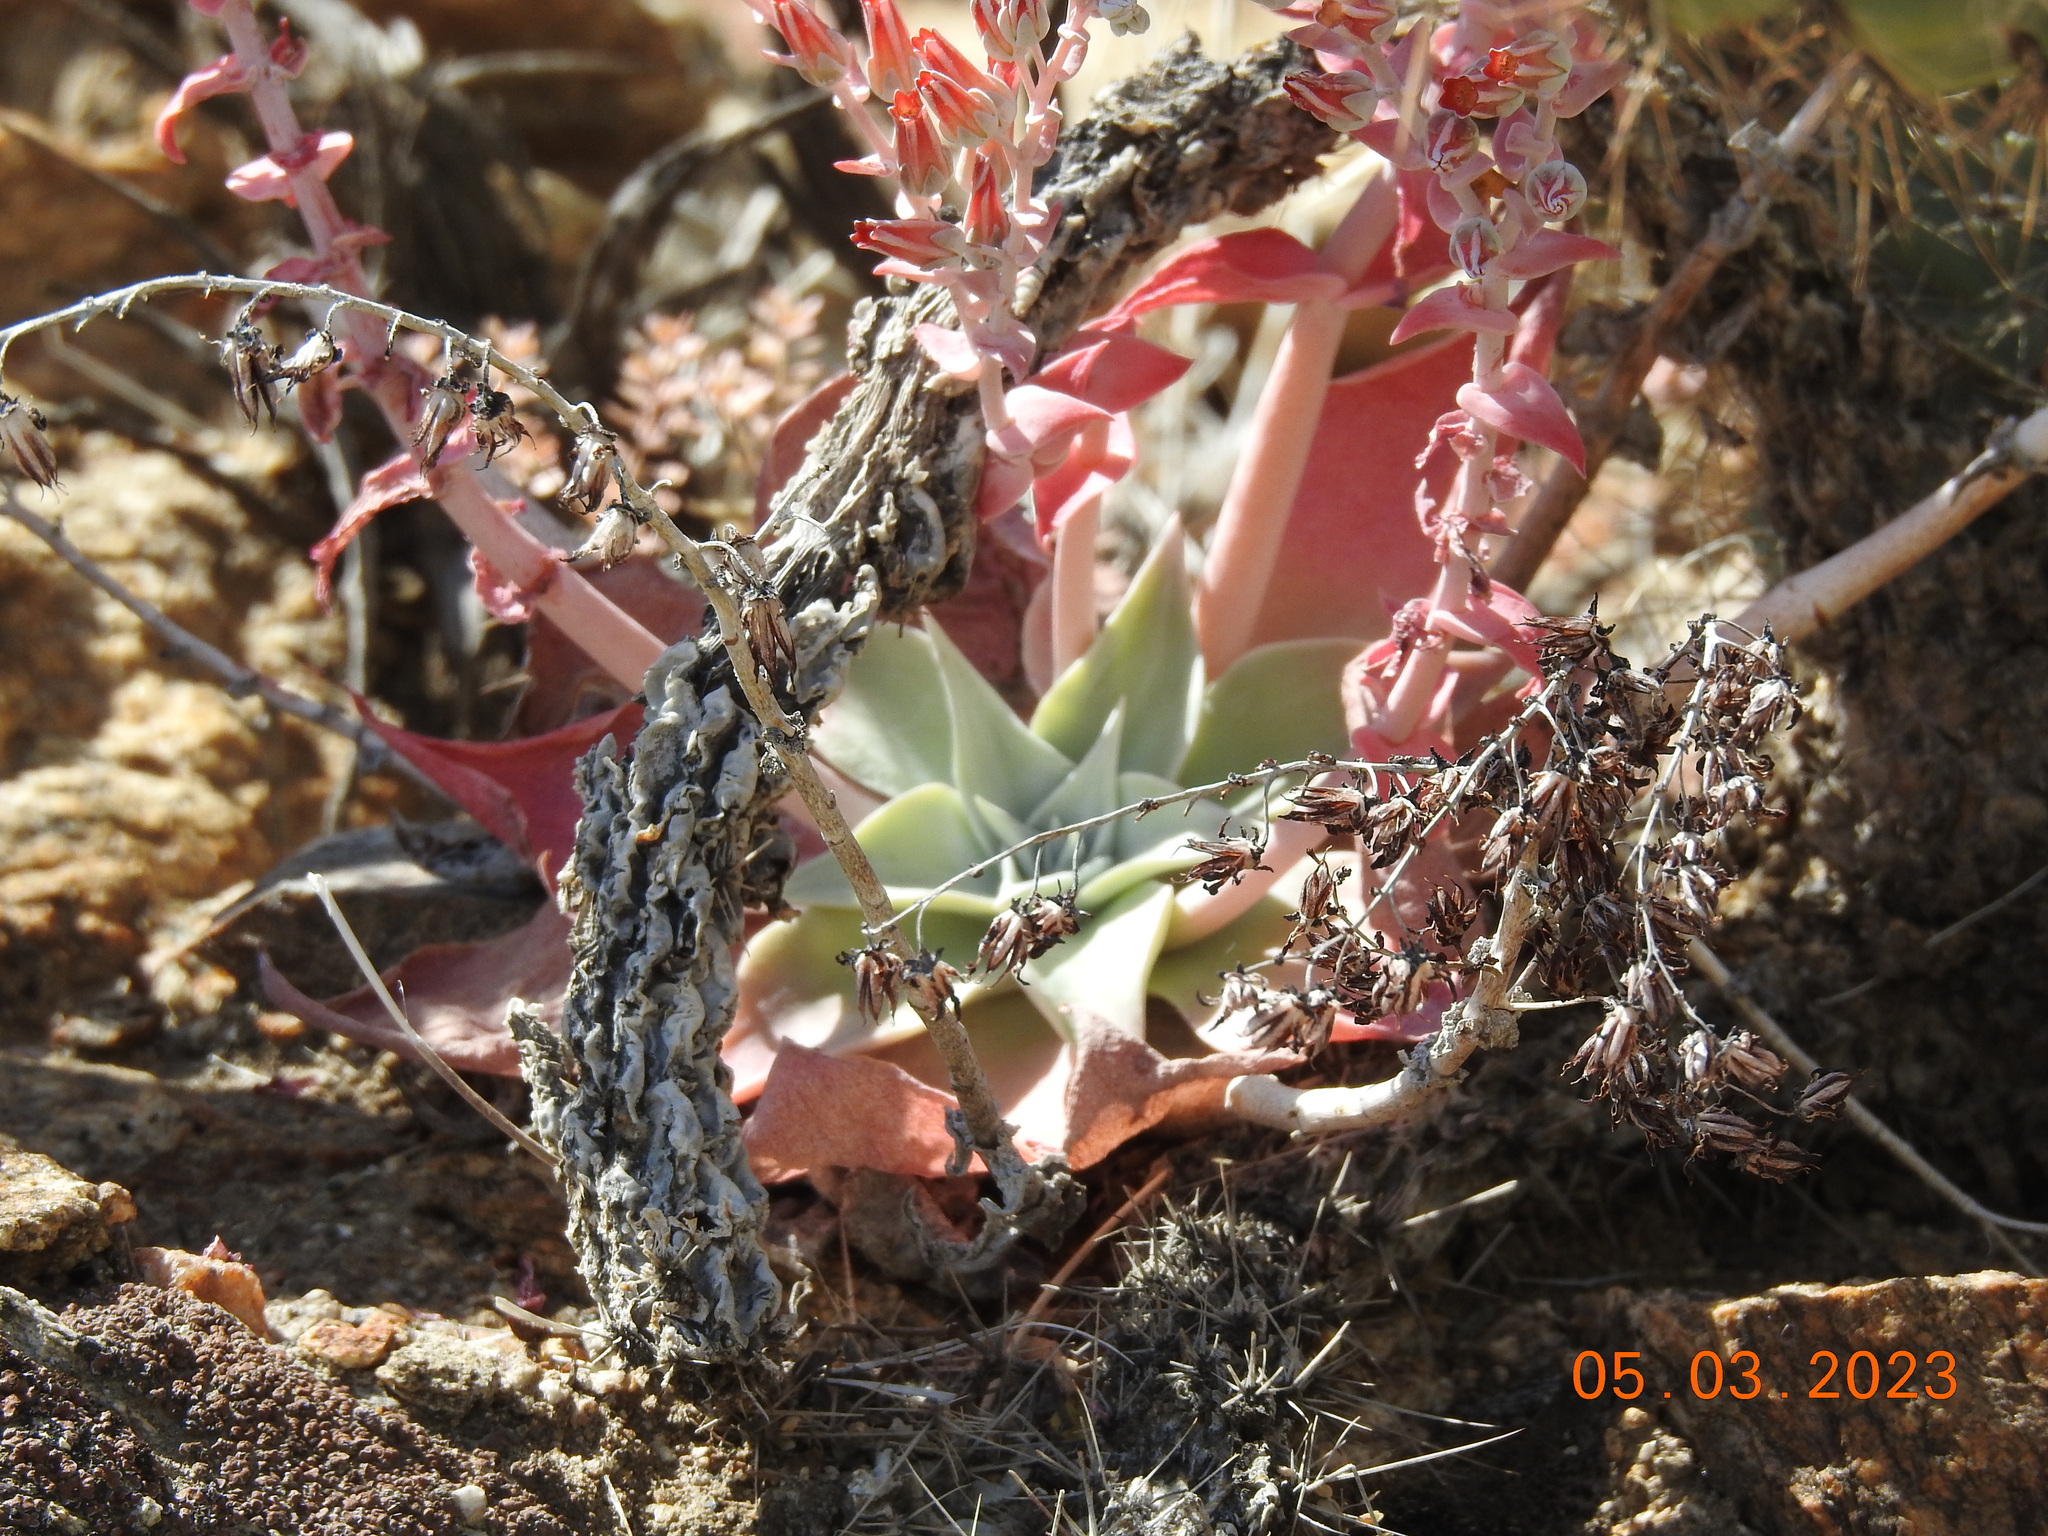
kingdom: Plantae
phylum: Tracheophyta
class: Magnoliopsida
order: Saxifragales
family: Crassulaceae
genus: Dudleya
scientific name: Dudleya arizonica
